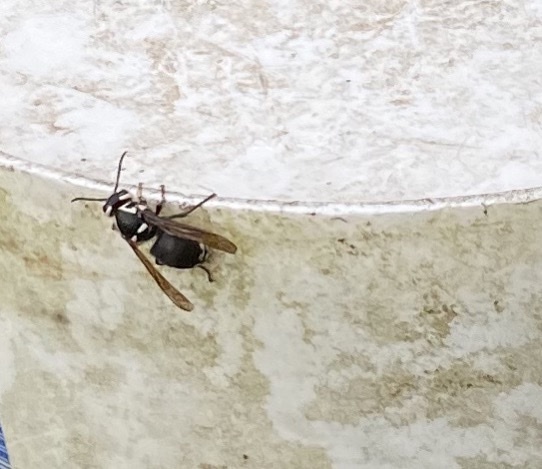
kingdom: Animalia
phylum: Arthropoda
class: Insecta
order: Hymenoptera
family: Vespidae
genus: Dolichovespula
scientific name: Dolichovespula maculata
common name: Bald-faced hornet
